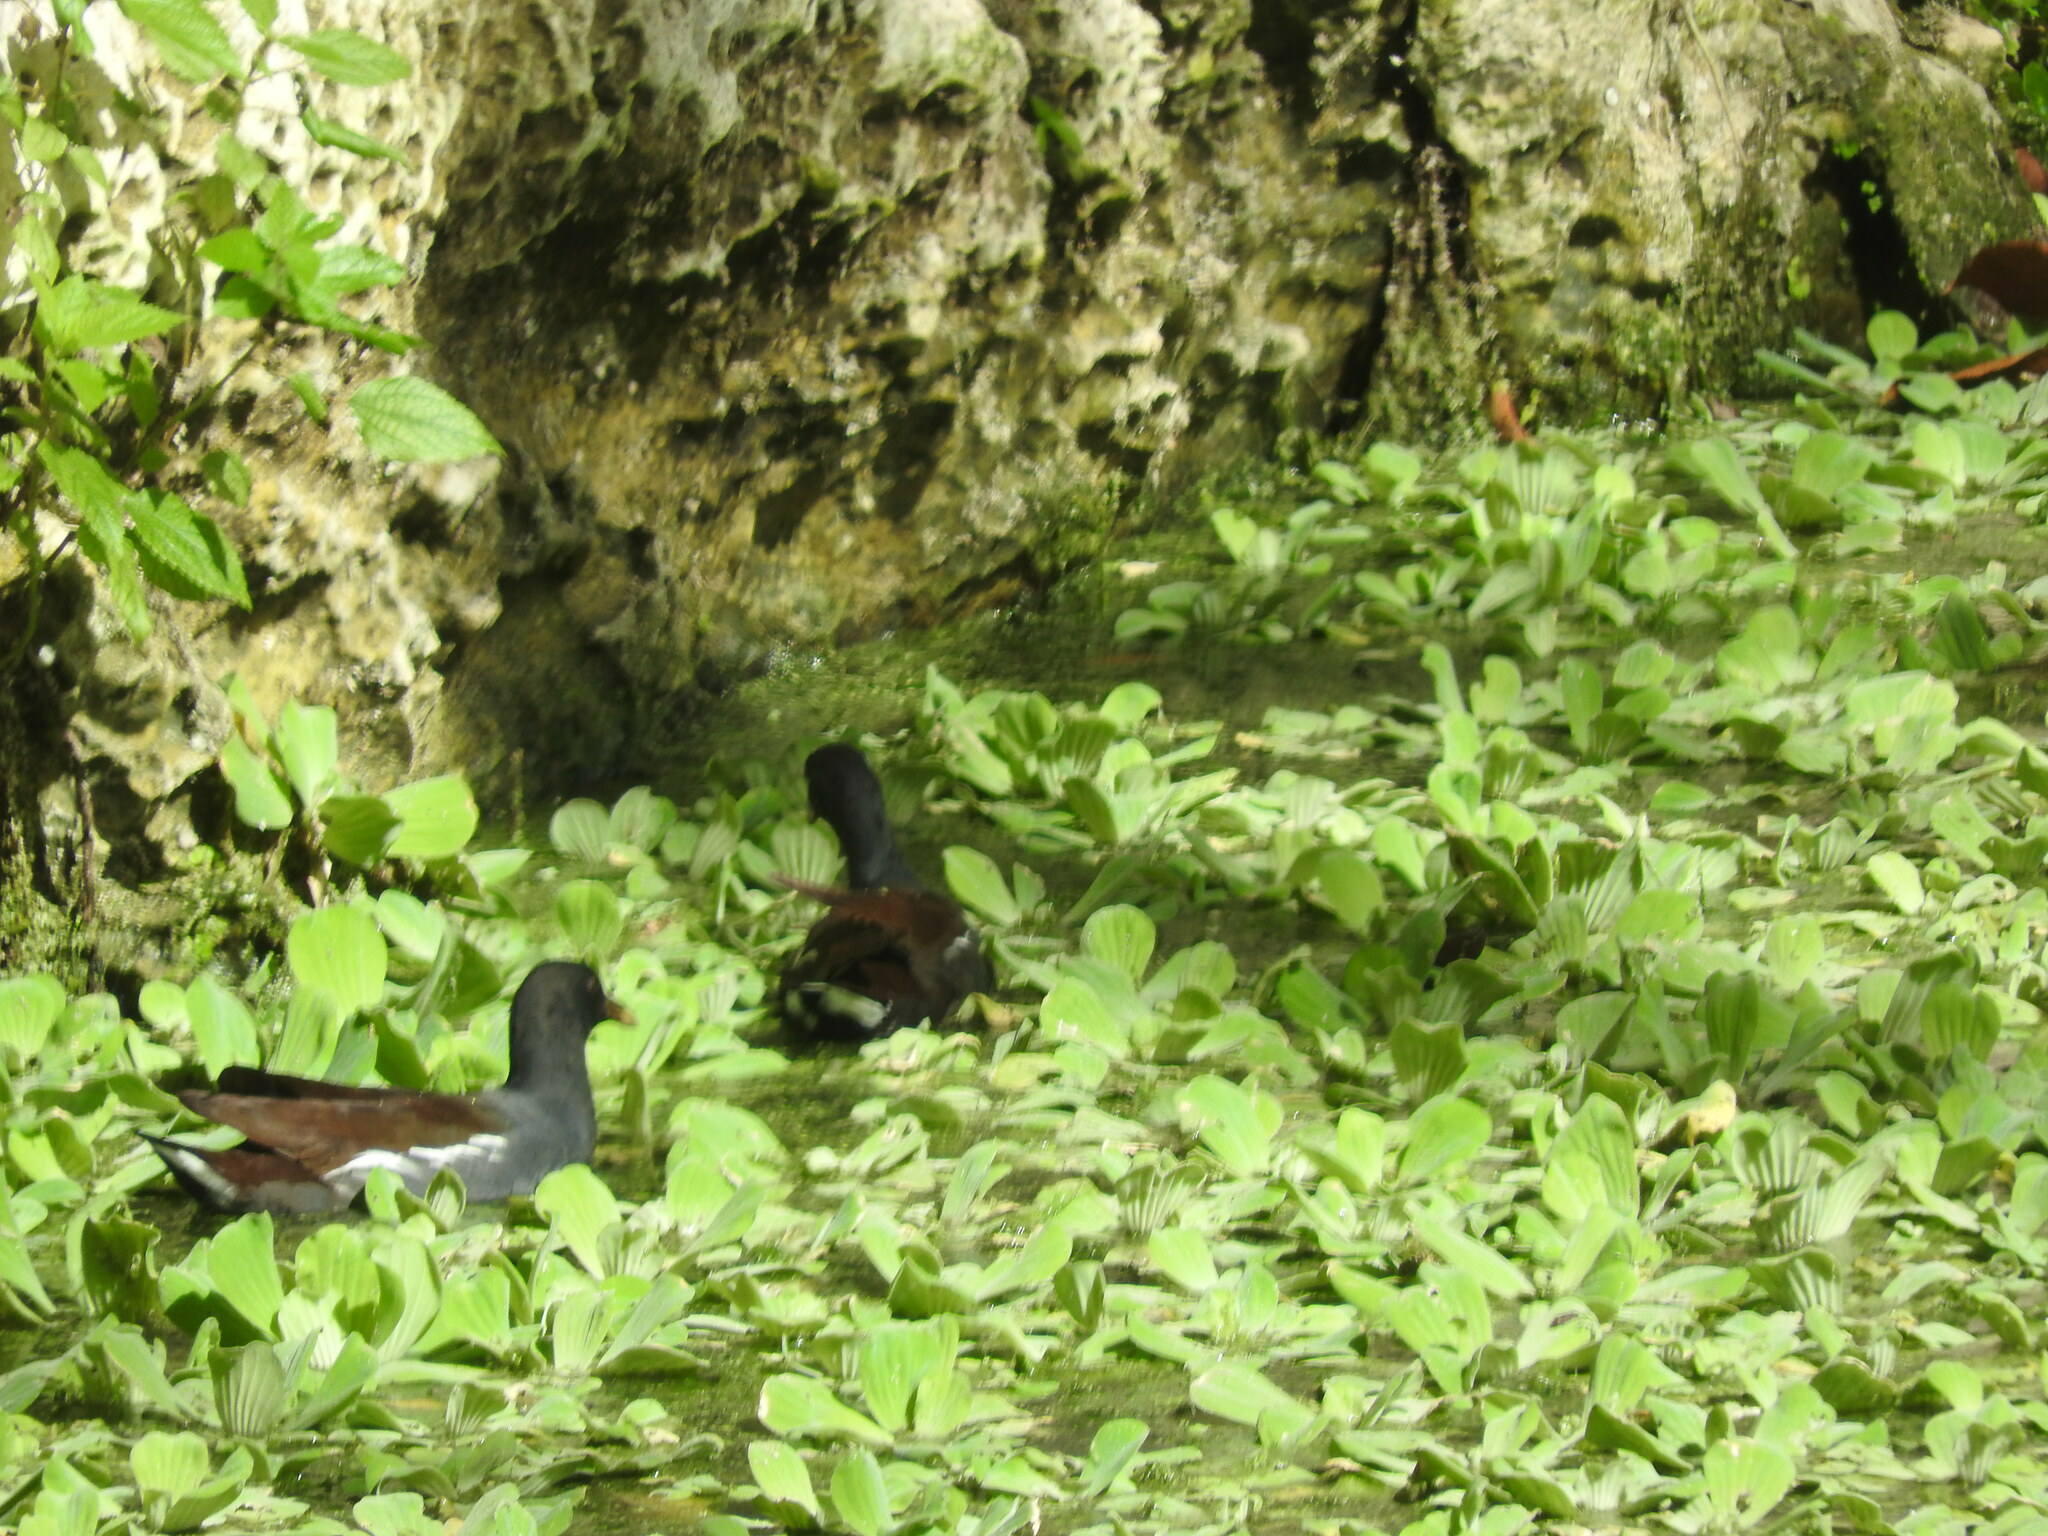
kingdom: Animalia
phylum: Chordata
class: Aves
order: Gruiformes
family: Rallidae
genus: Gallinula
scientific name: Gallinula chloropus
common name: Common moorhen
